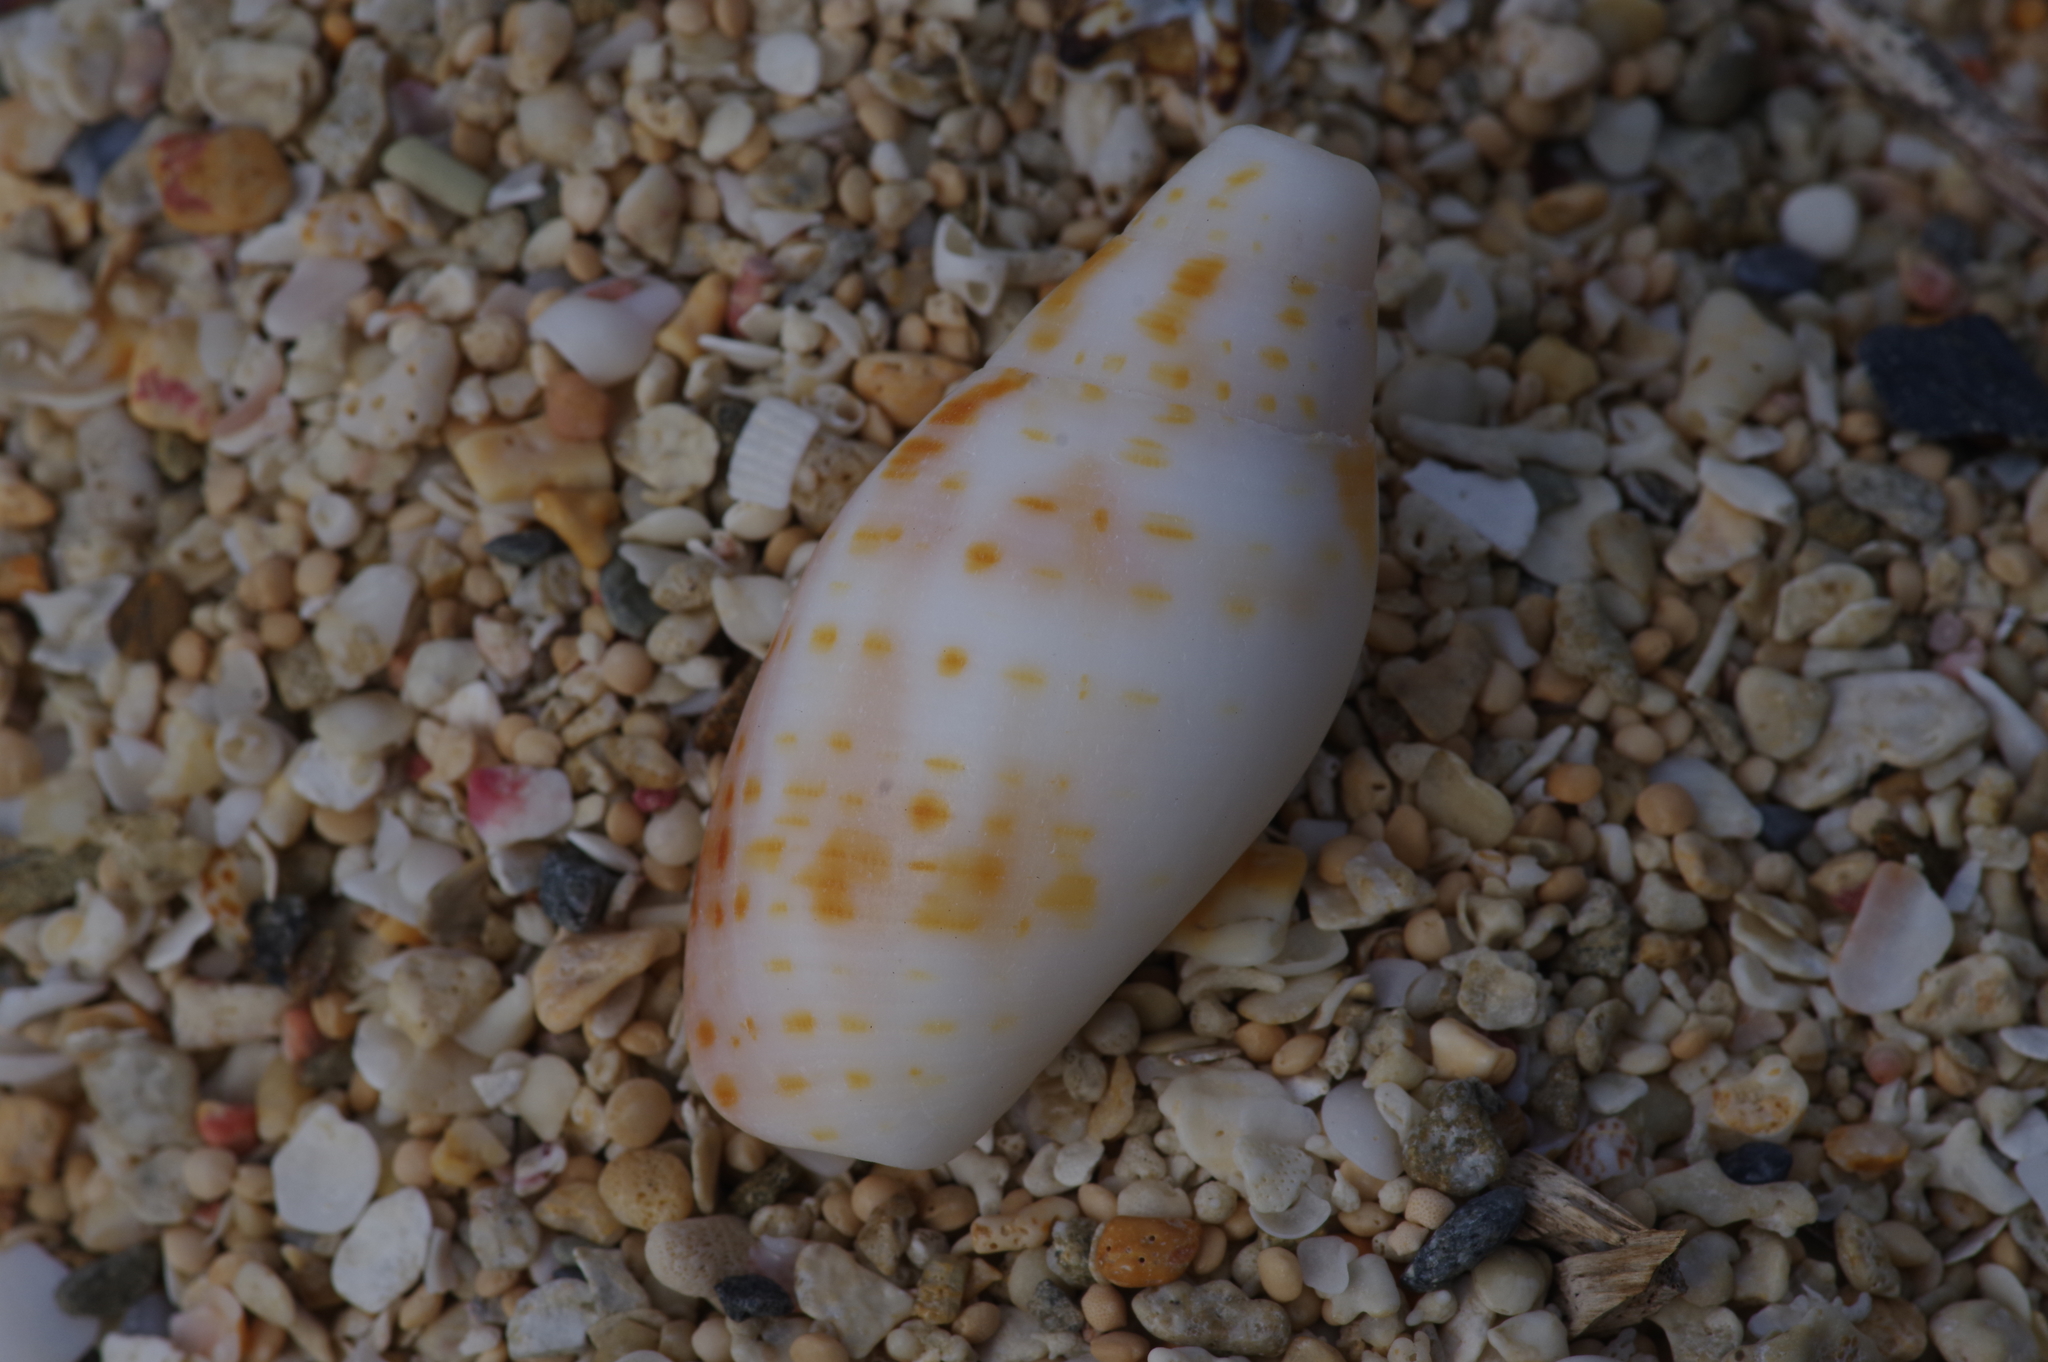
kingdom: Animalia
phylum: Mollusca
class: Gastropoda
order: Neogastropoda
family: Mitridae
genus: Quasimitra
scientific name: Quasimitra cardinalis
